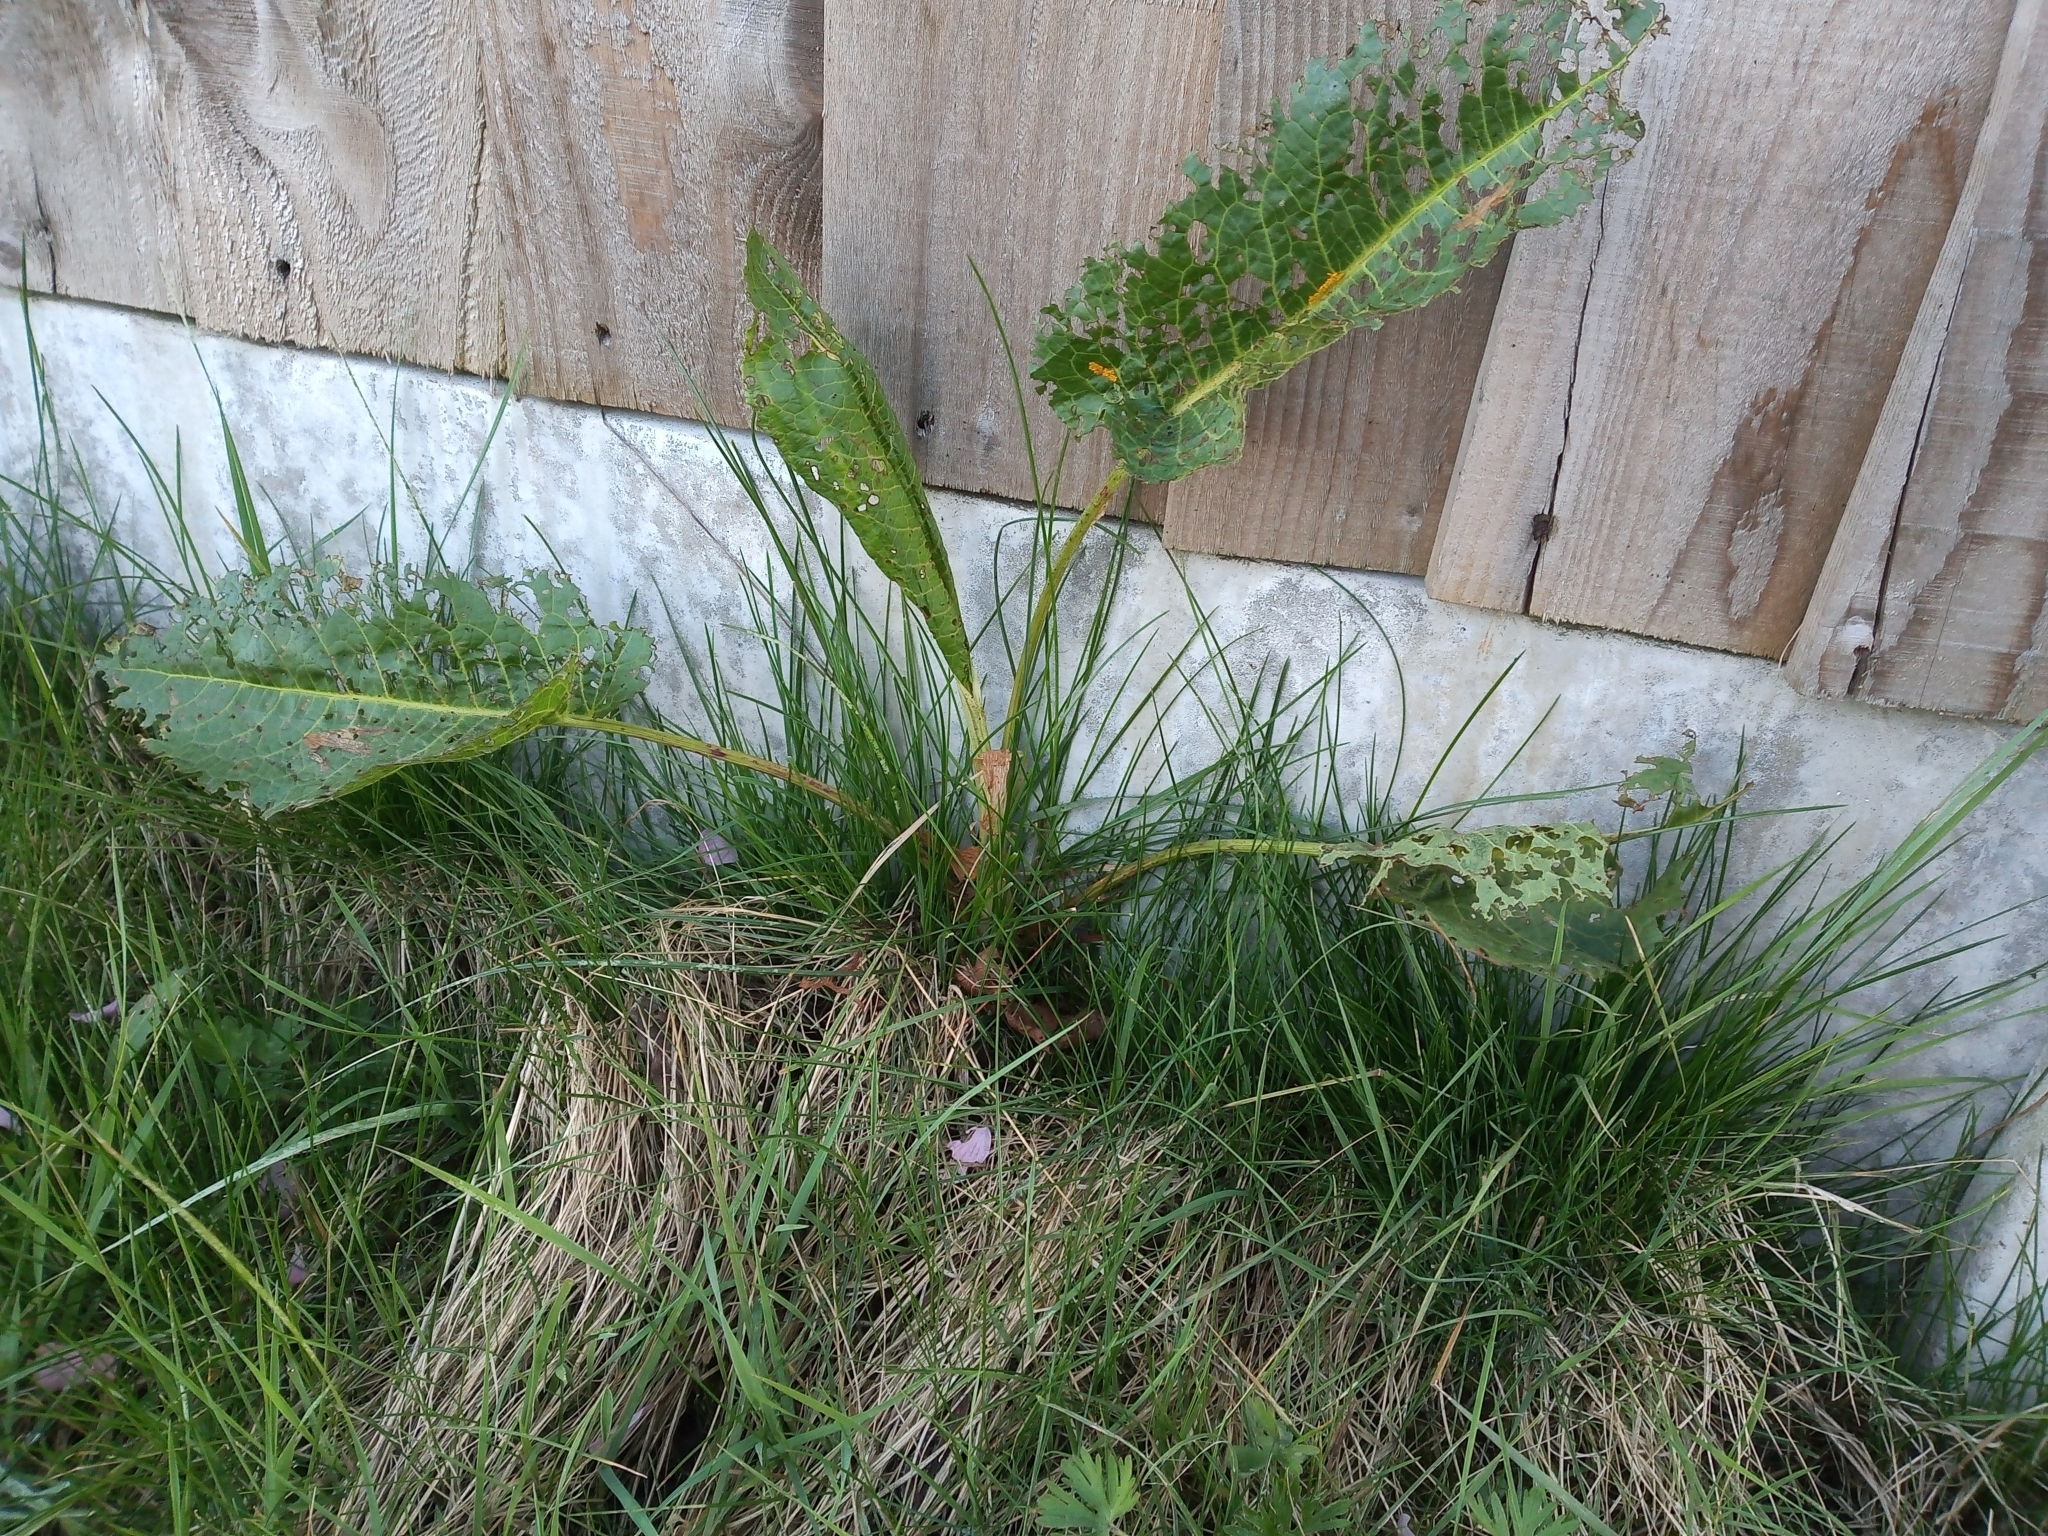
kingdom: Plantae
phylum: Tracheophyta
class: Magnoliopsida
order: Caryophyllales
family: Polygonaceae
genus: Rumex
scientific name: Rumex obtusifolius
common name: Bitter dock
